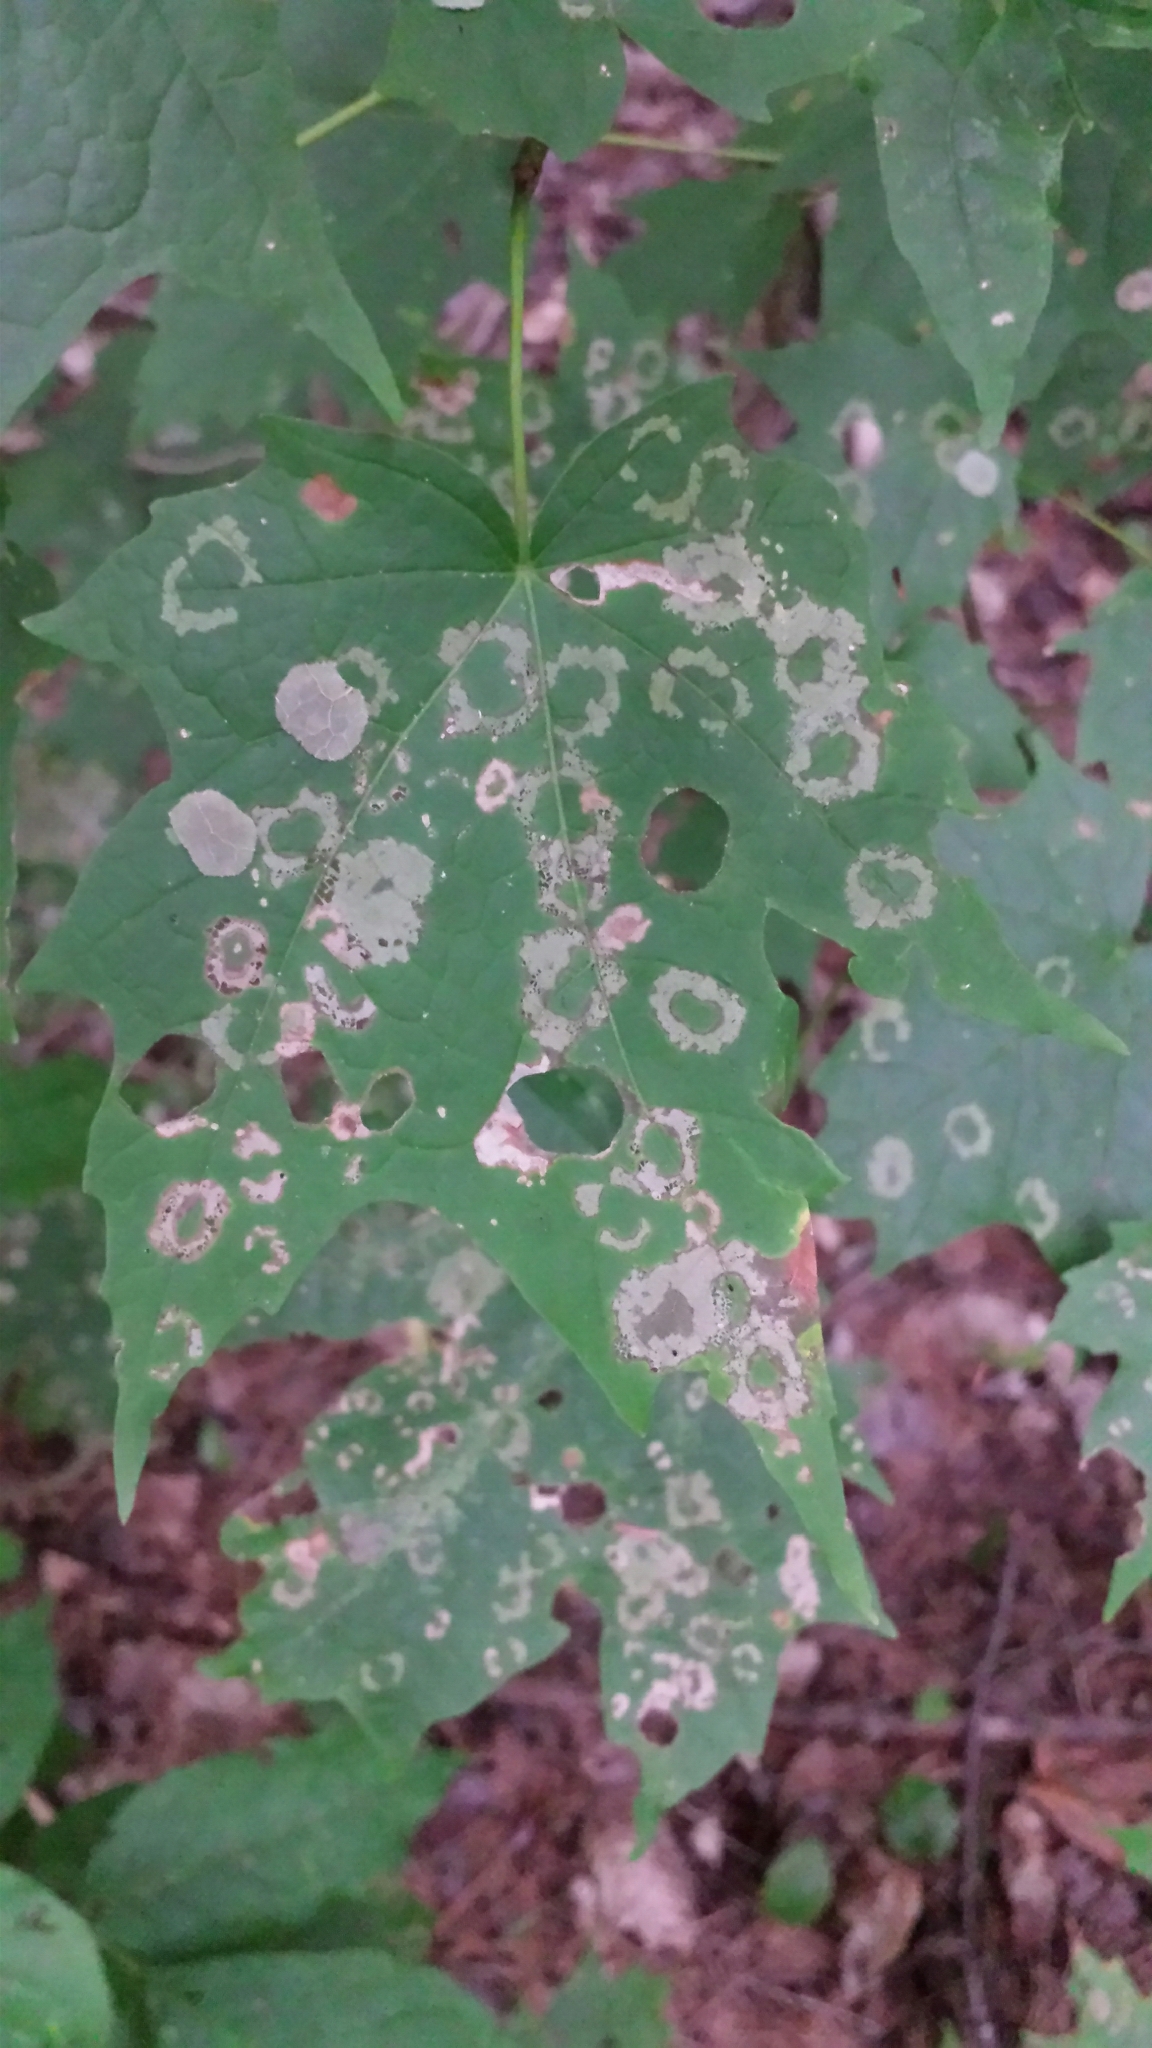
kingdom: Animalia
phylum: Arthropoda
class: Insecta
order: Lepidoptera
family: Incurvariidae
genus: Paraclemensia
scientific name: Paraclemensia acerifoliella
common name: Maple leafcutter
